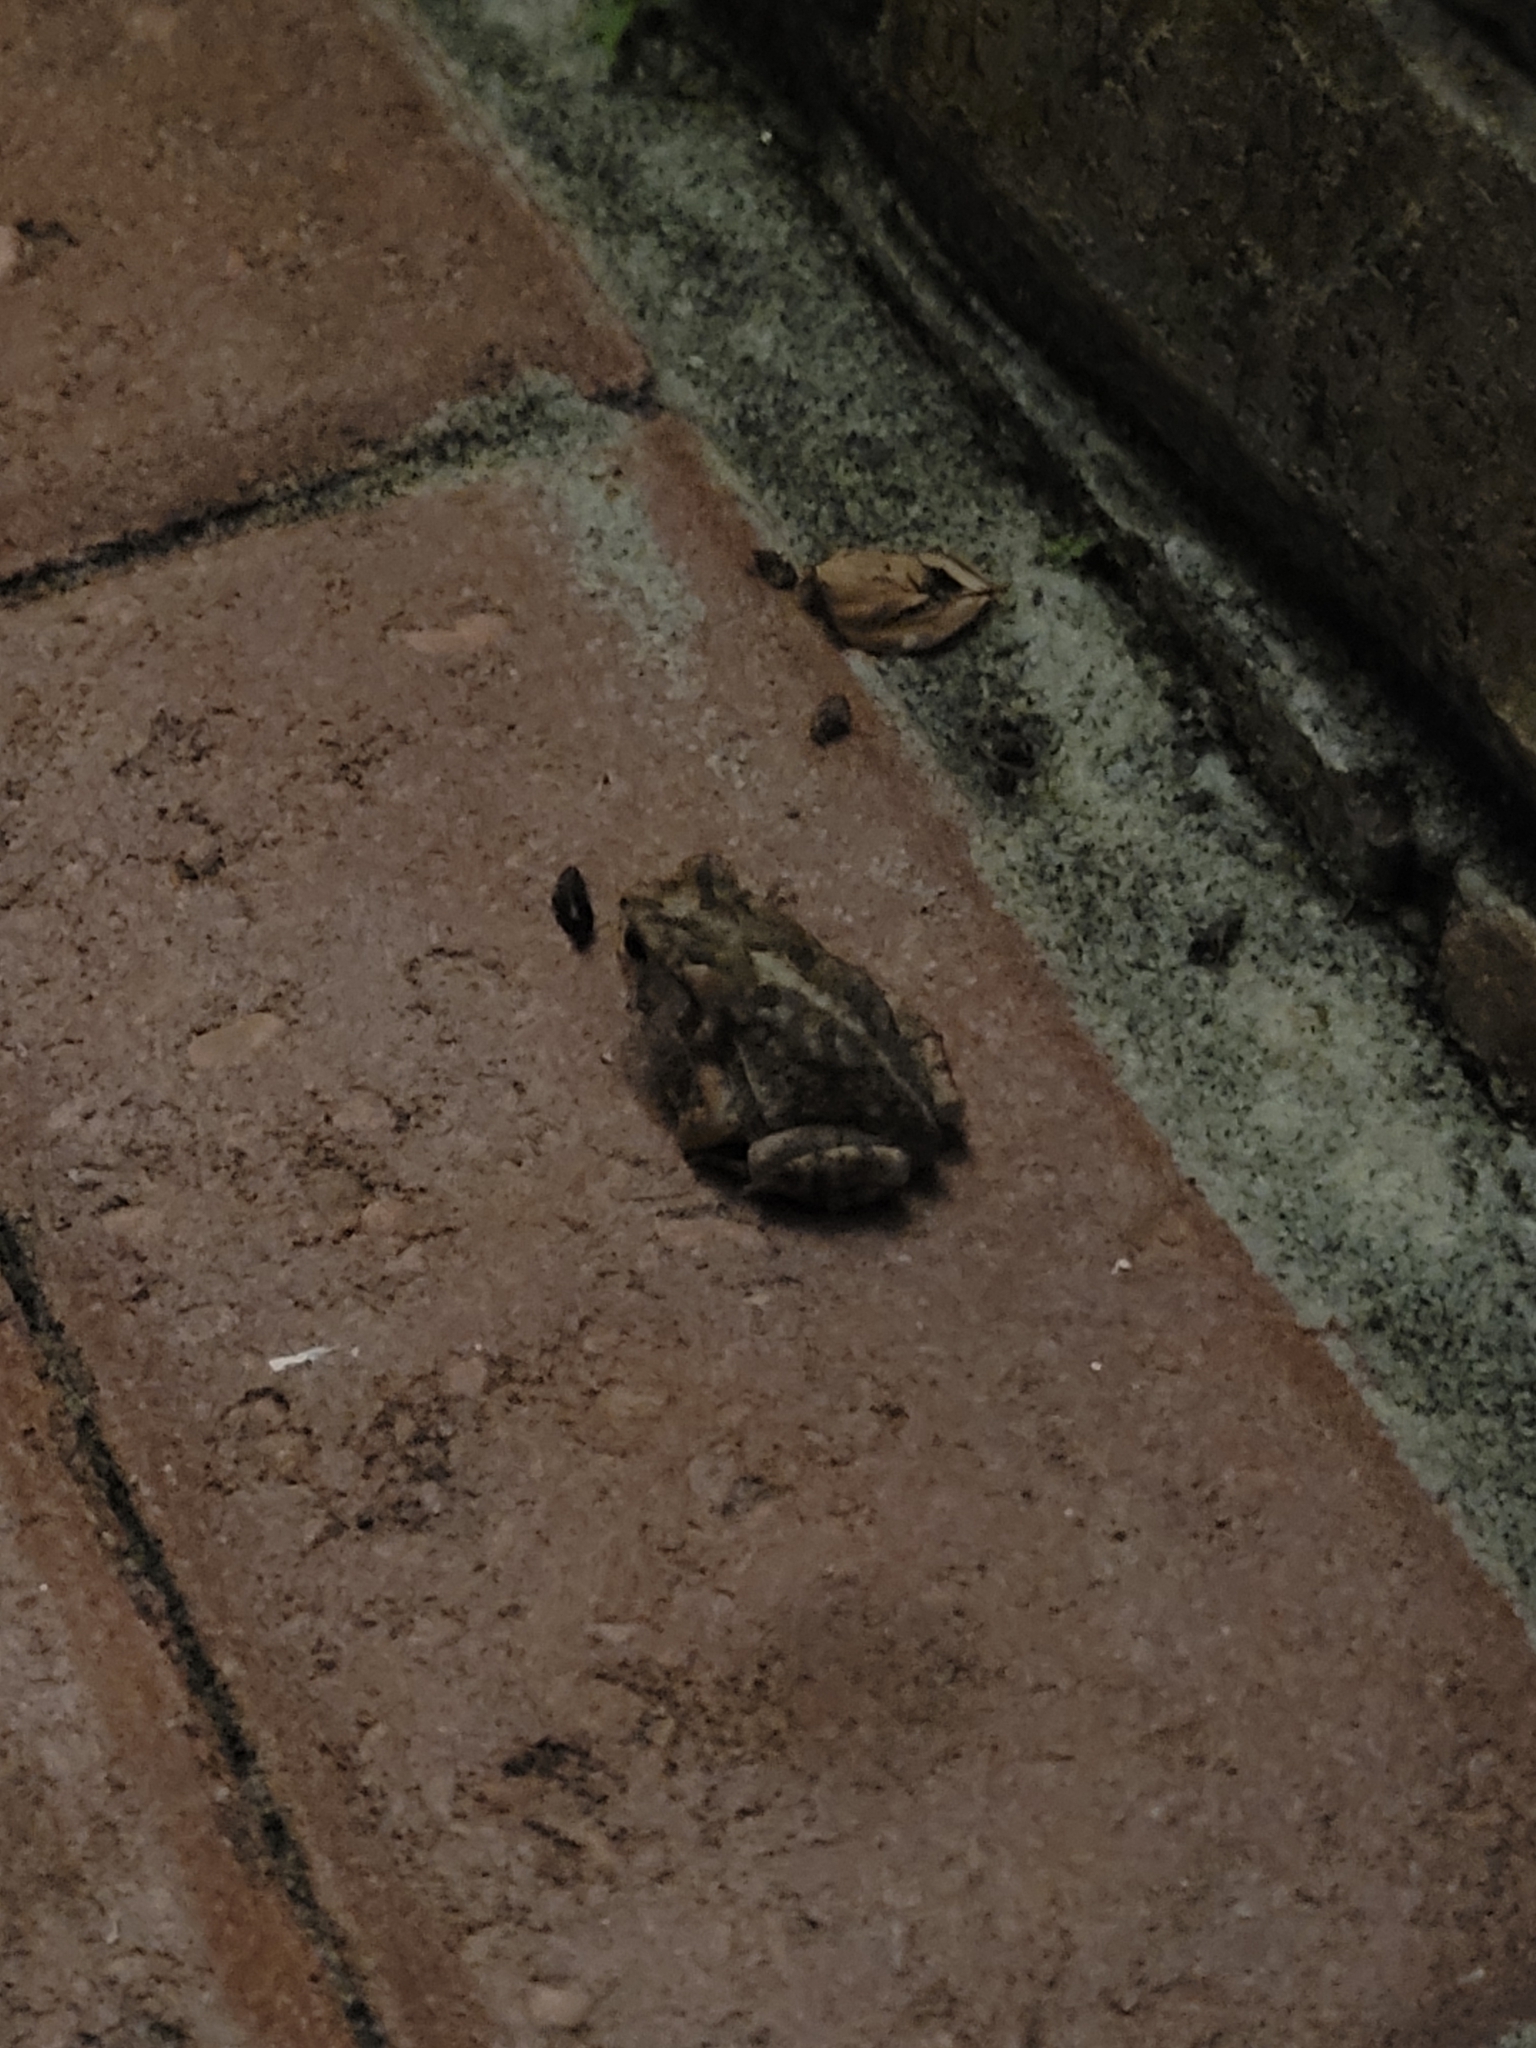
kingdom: Animalia
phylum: Chordata
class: Amphibia
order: Anura
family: Bufonidae
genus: Anaxyrus
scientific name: Anaxyrus terrestris
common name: Southern toad
